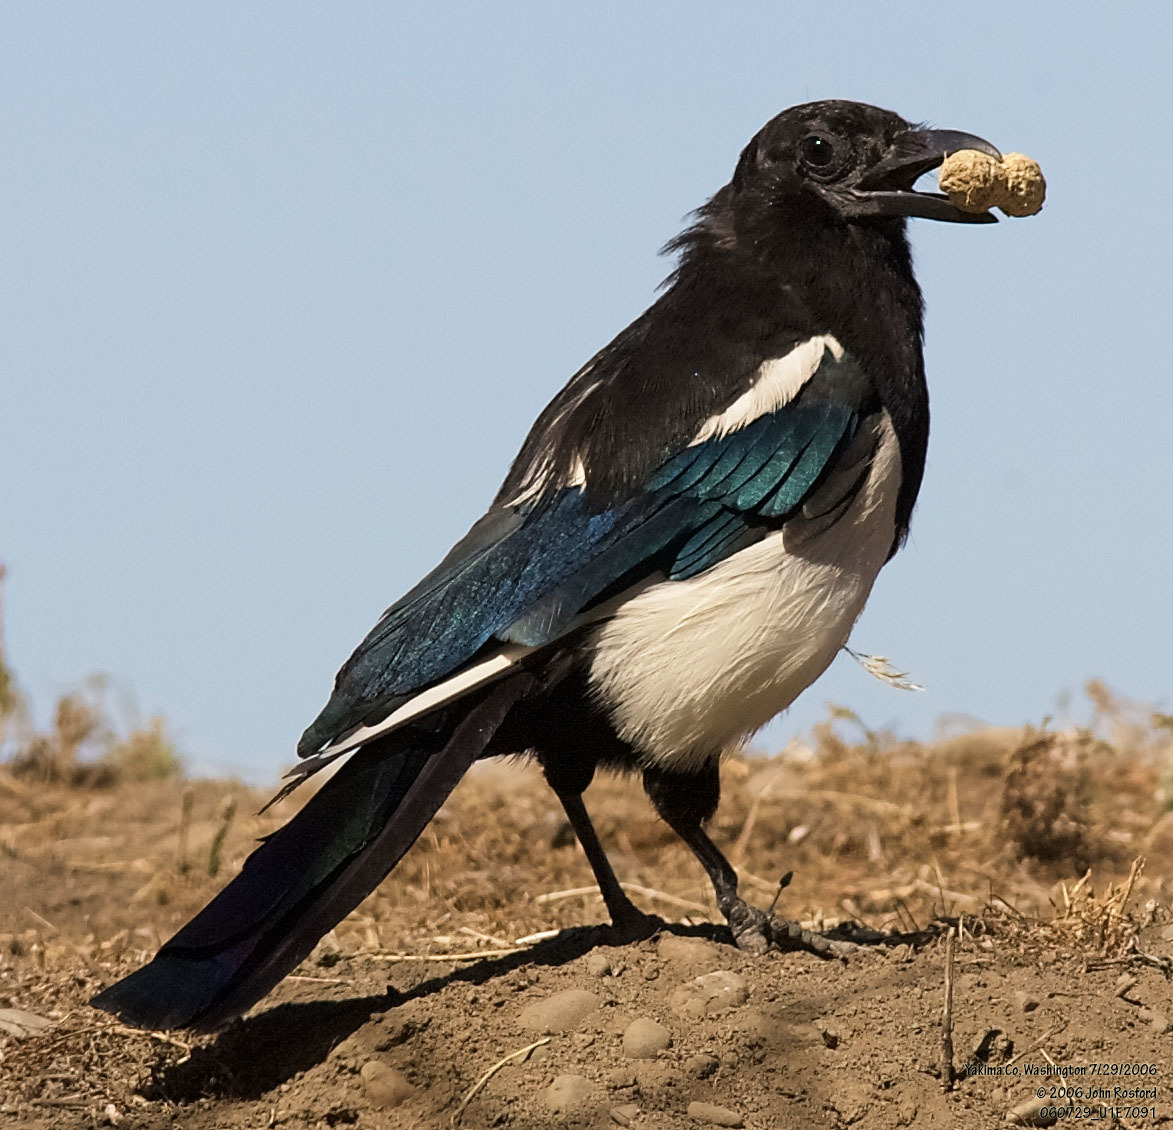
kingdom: Animalia
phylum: Chordata
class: Aves
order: Passeriformes
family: Corvidae
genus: Pica
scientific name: Pica hudsonia
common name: Black-billed magpie
